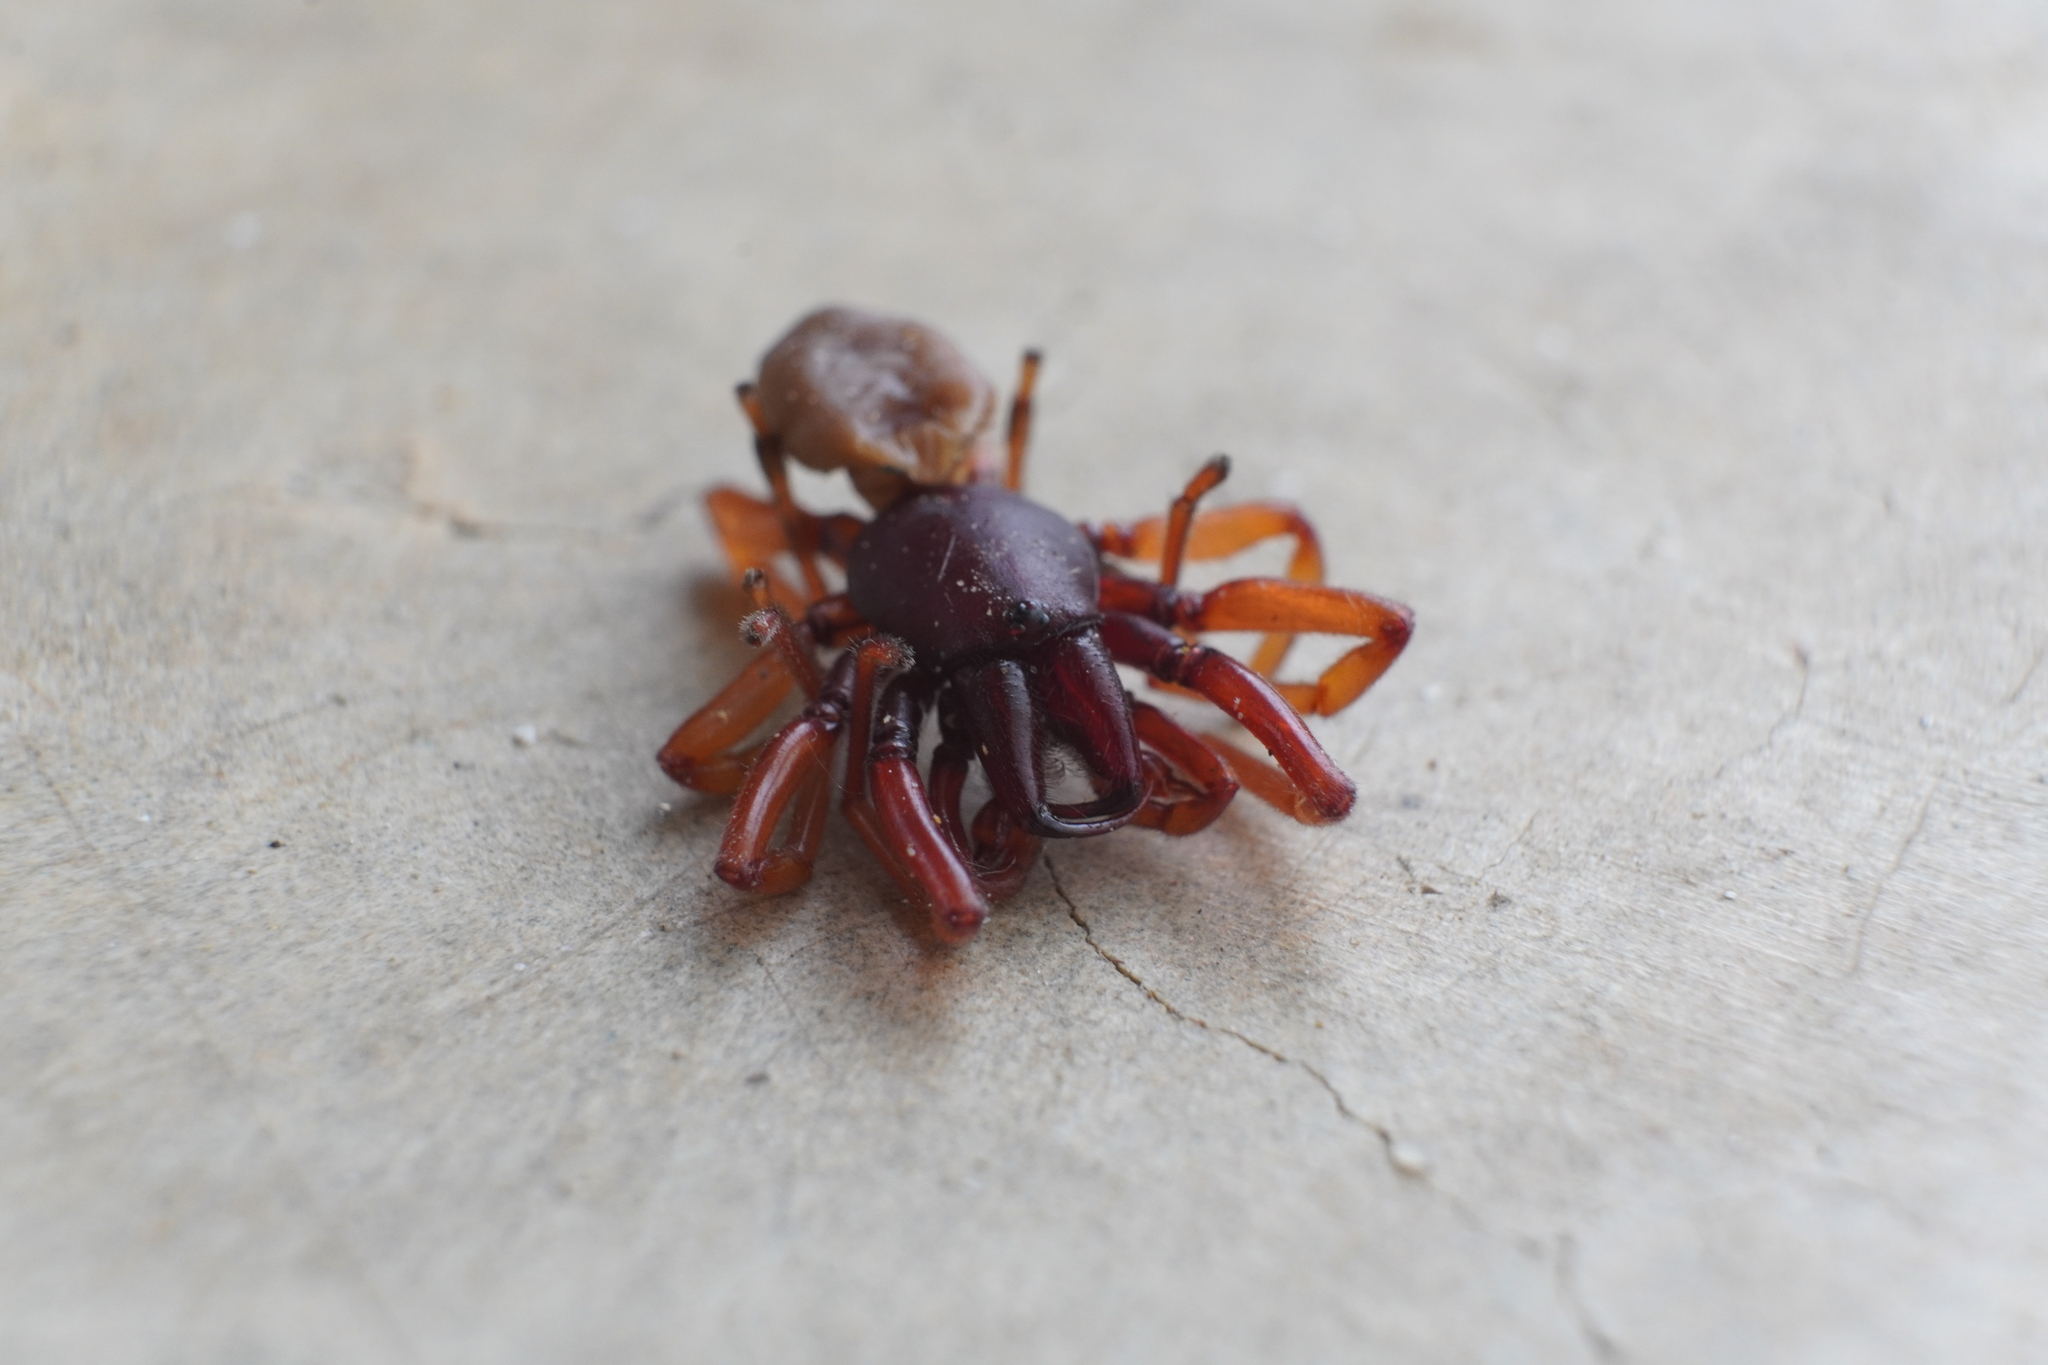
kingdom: Animalia
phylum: Arthropoda
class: Arachnida
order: Araneae
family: Dysderidae
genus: Dysdera
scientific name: Dysdera crocata
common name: Woodlouse spider
